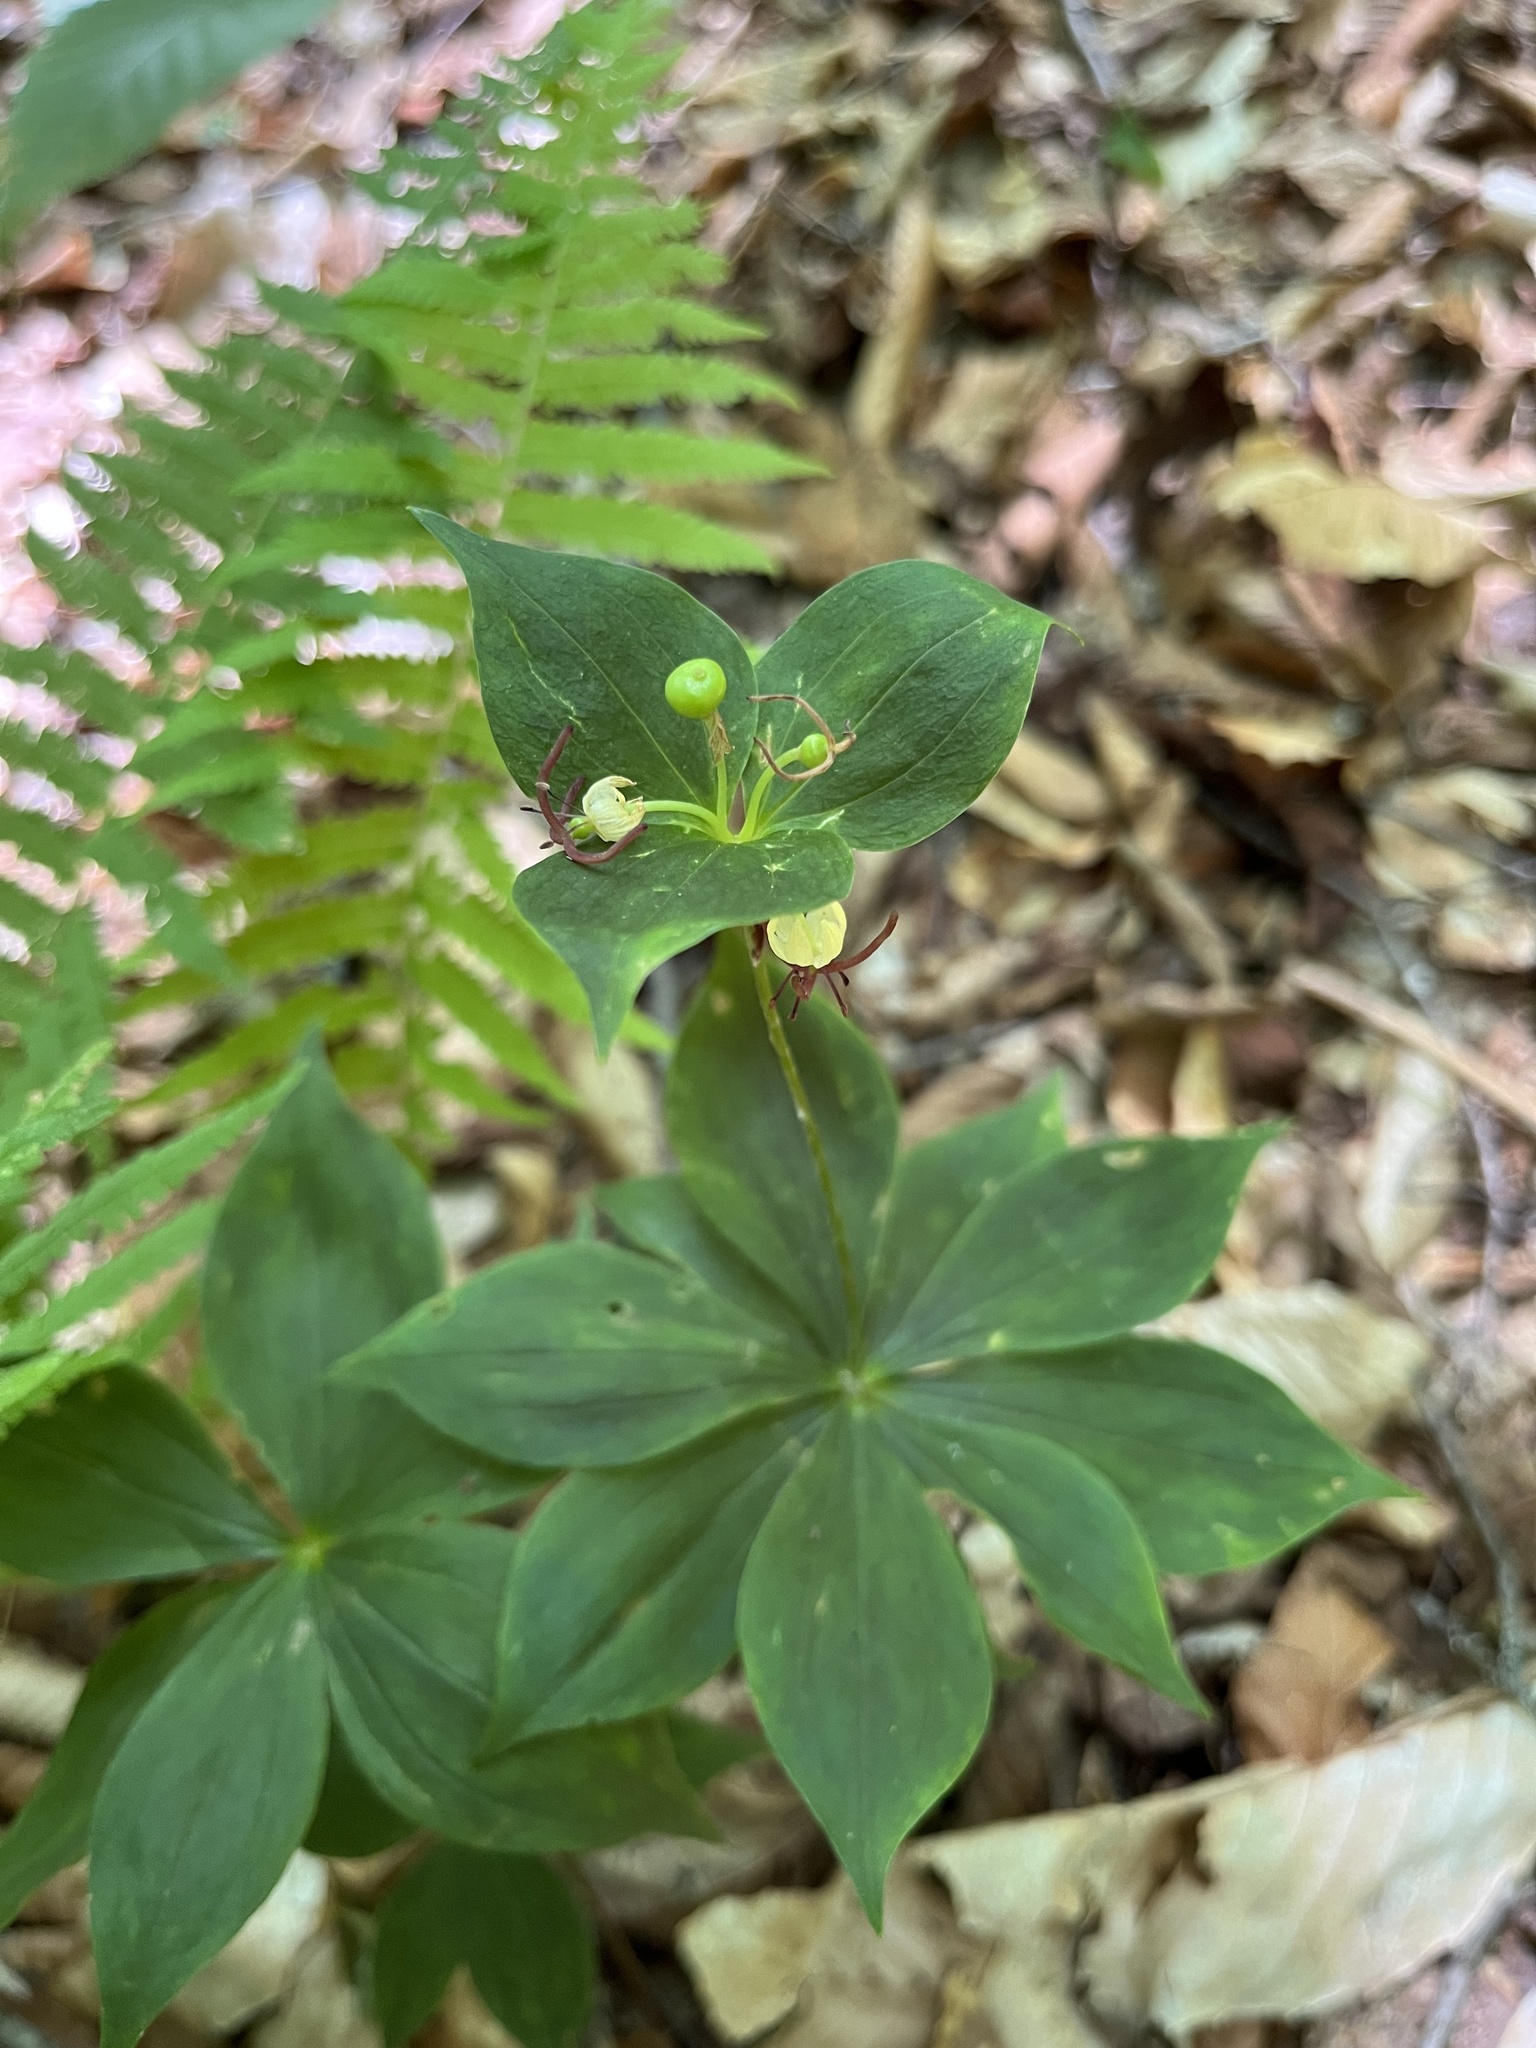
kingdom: Plantae
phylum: Tracheophyta
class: Liliopsida
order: Liliales
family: Liliaceae
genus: Medeola
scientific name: Medeola virginiana
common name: Indian cucumber-root
